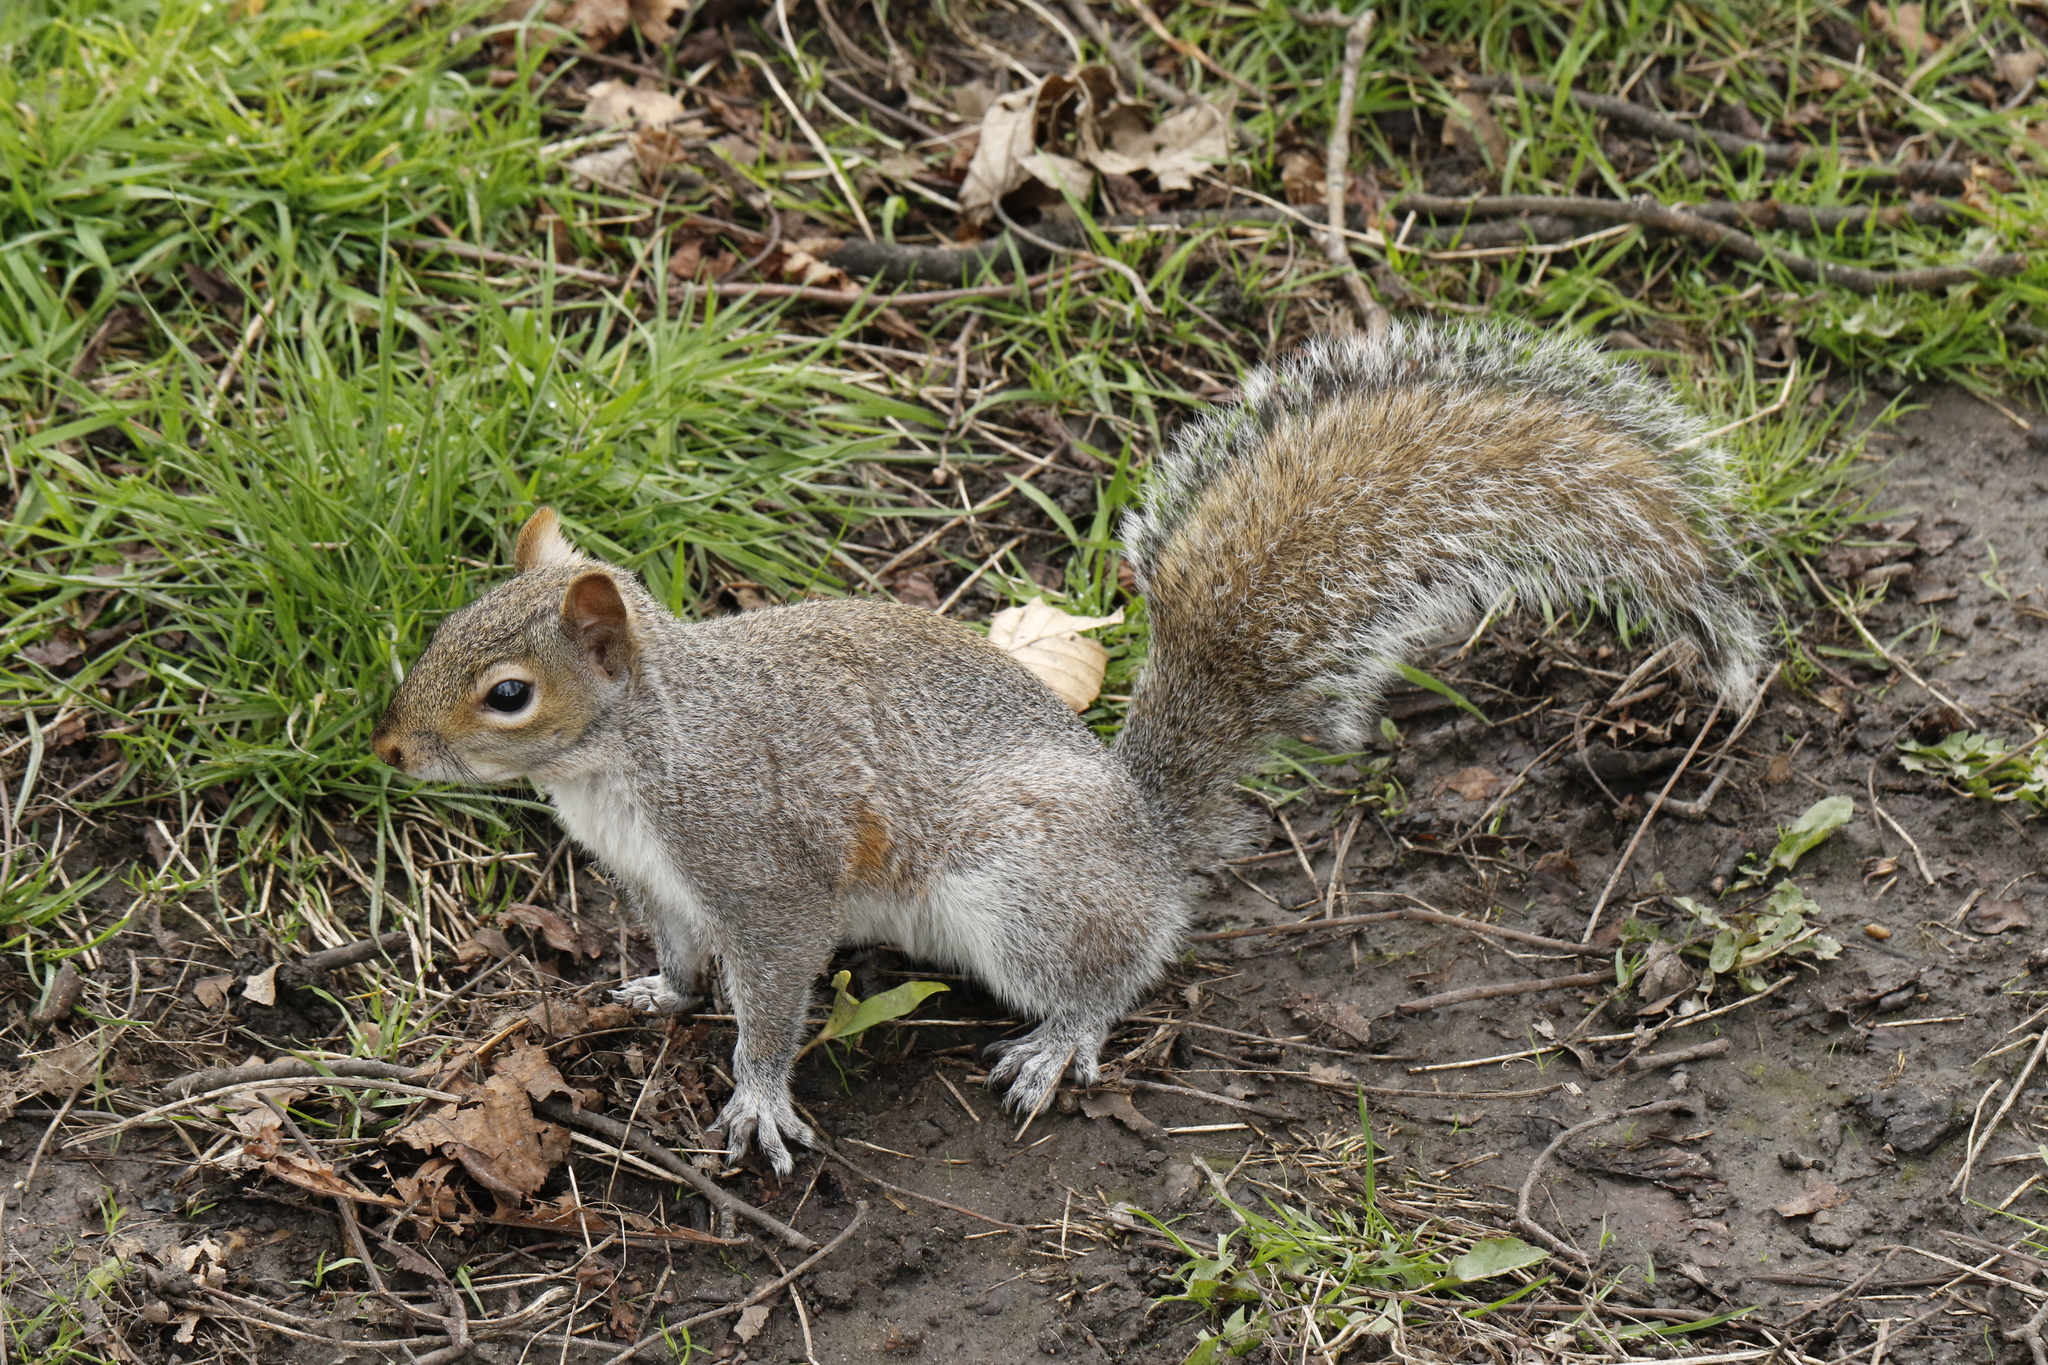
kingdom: Animalia
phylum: Chordata
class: Mammalia
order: Rodentia
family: Sciuridae
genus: Sciurus
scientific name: Sciurus carolinensis
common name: Eastern gray squirrel
